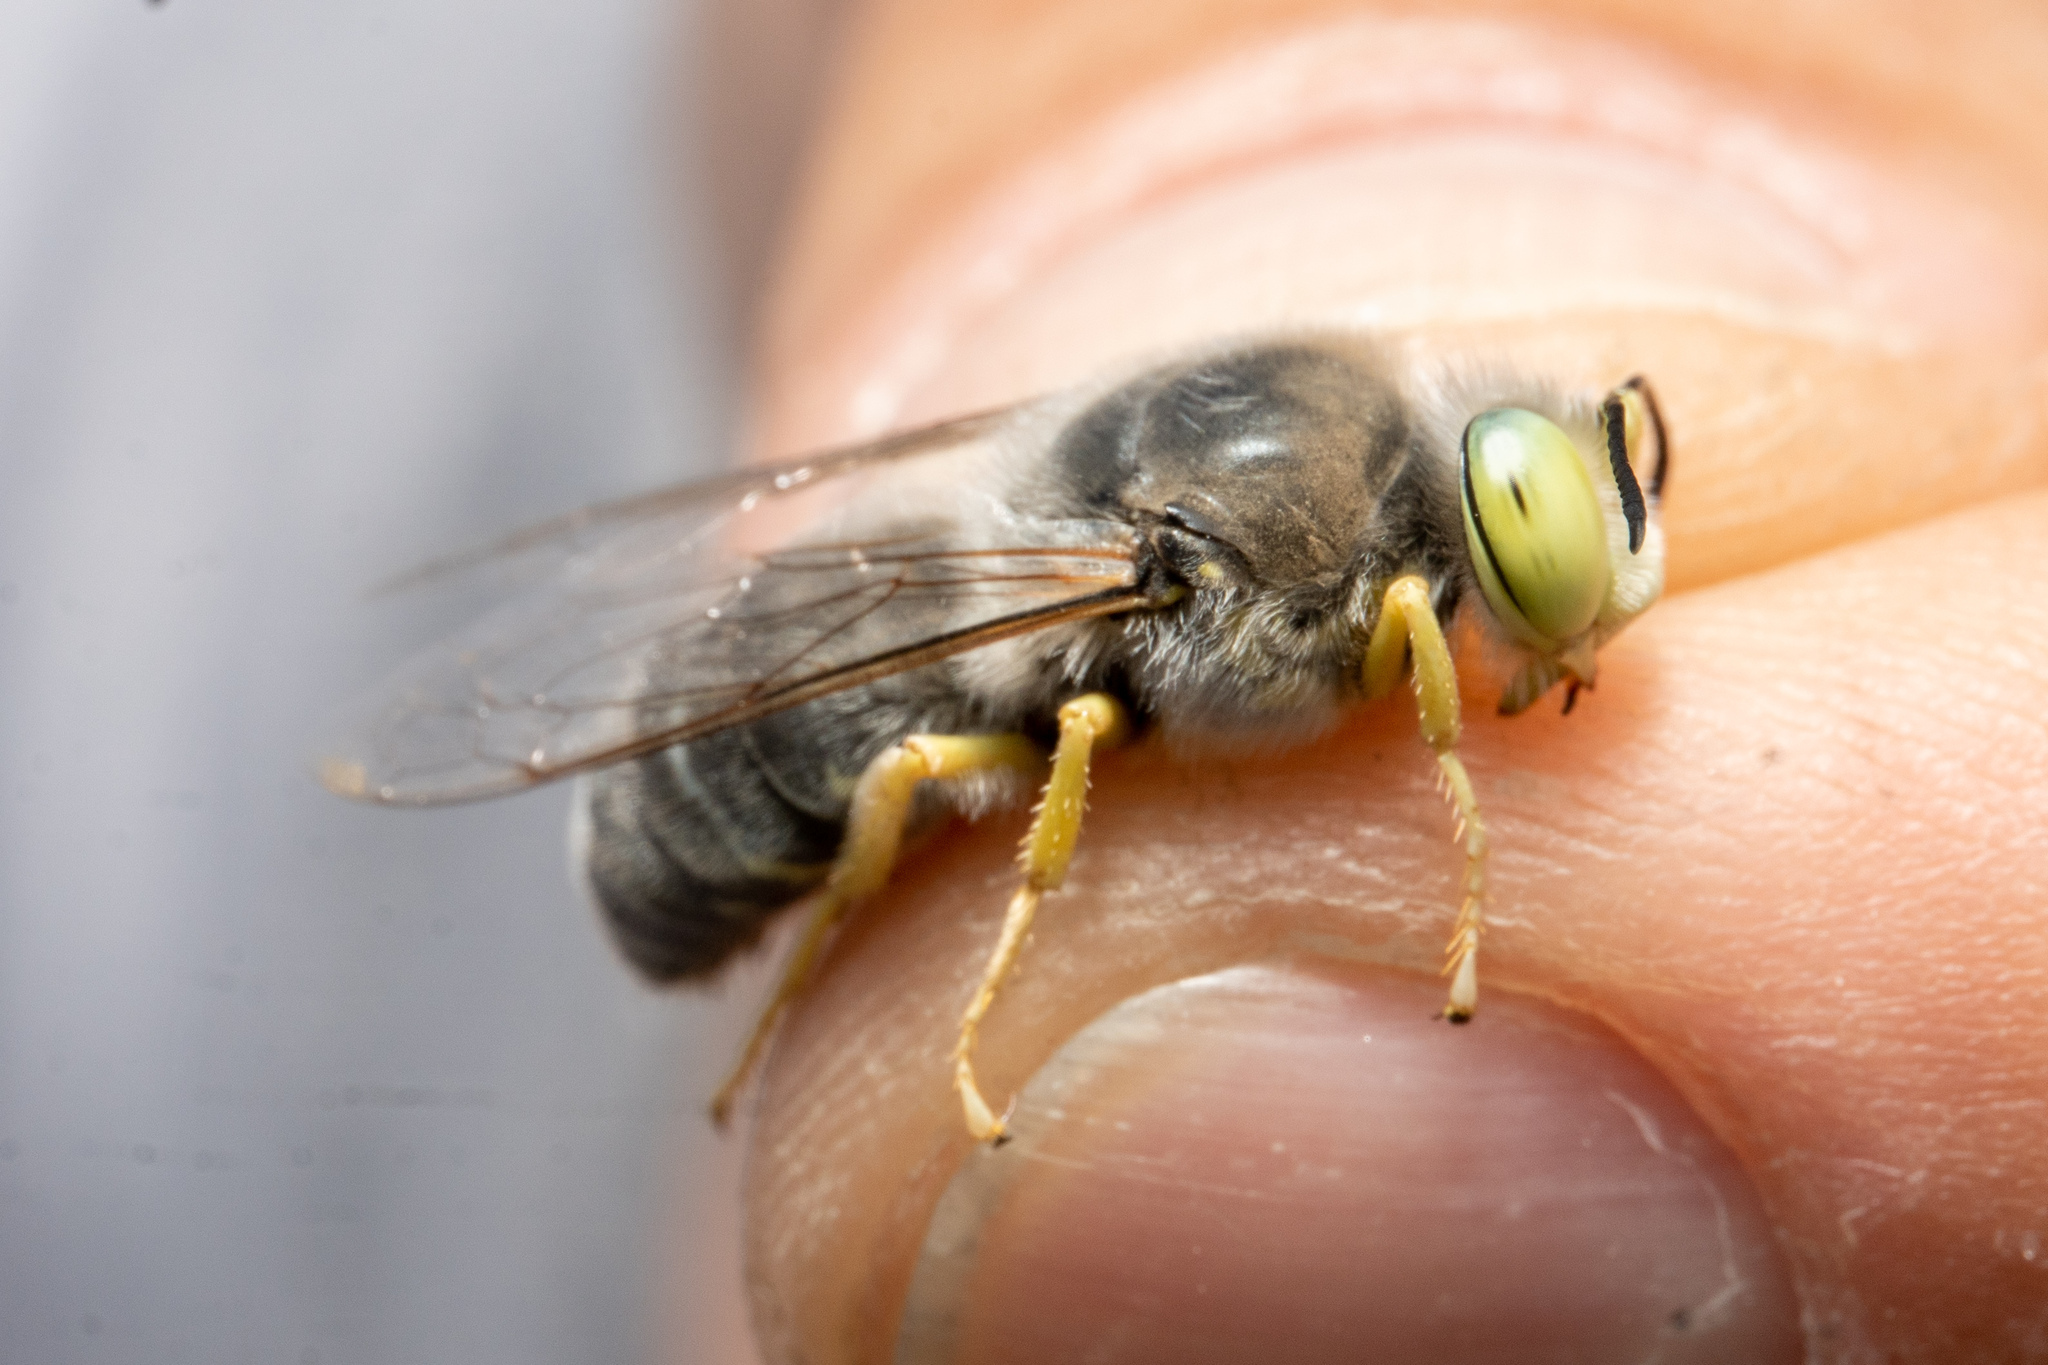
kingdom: Animalia
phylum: Arthropoda
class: Insecta
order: Hymenoptera
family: Crabronidae
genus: Bembix
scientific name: Bembix amoena
